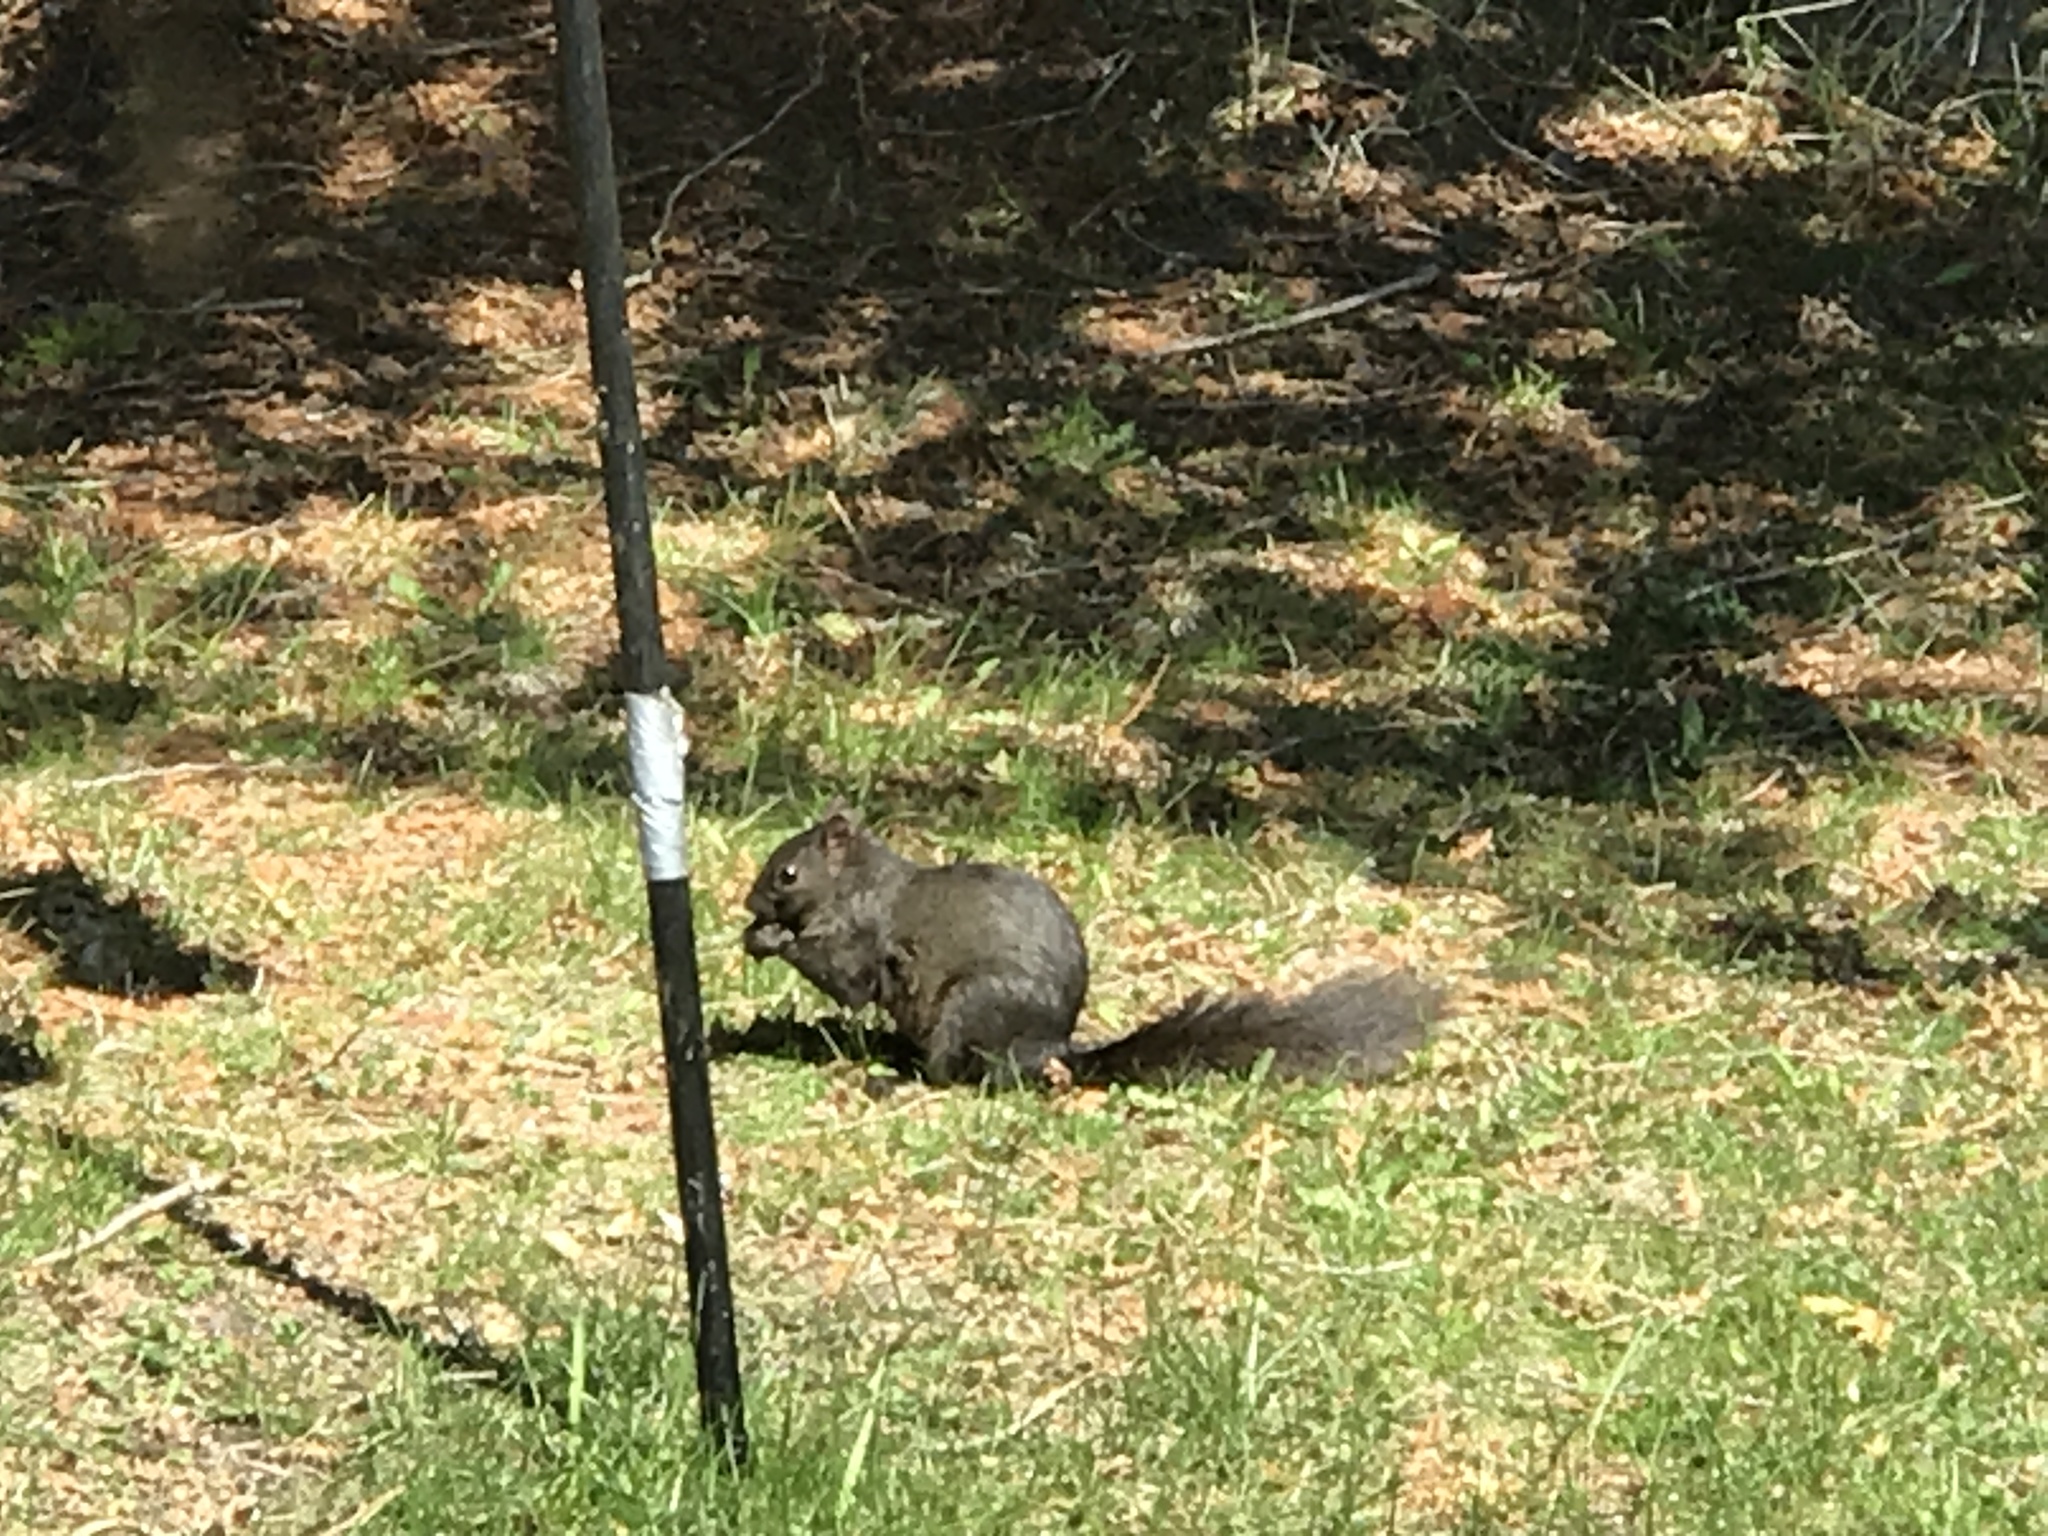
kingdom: Animalia
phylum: Chordata
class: Mammalia
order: Rodentia
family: Sciuridae
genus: Sciurus
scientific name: Sciurus carolinensis
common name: Eastern gray squirrel
